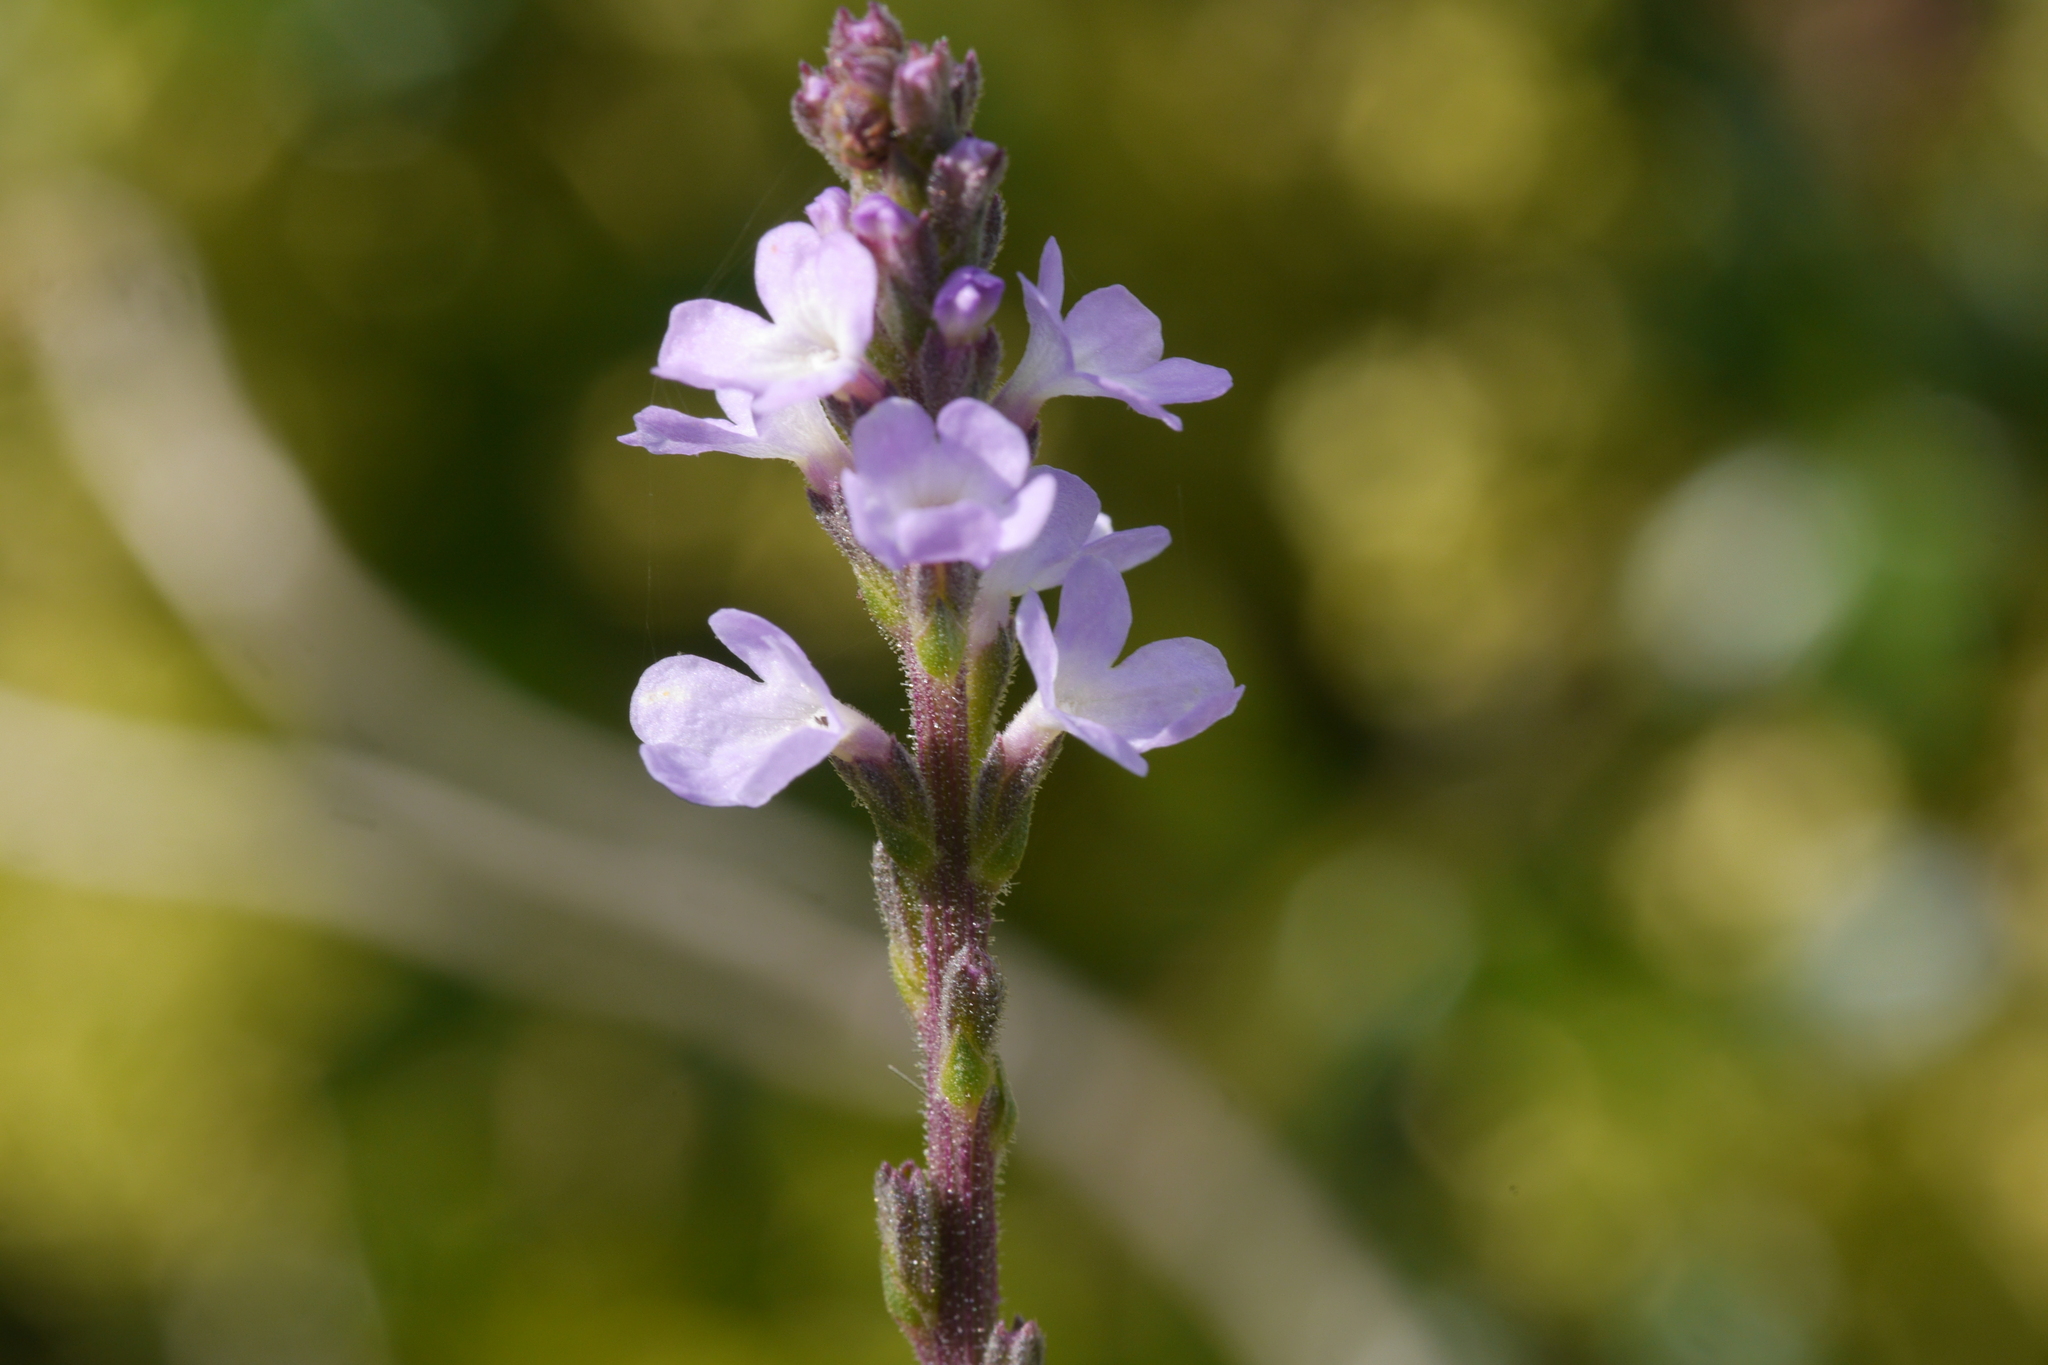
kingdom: Plantae
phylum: Tracheophyta
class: Magnoliopsida
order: Lamiales
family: Verbenaceae
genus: Verbena
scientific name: Verbena officinalis
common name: Vervain
